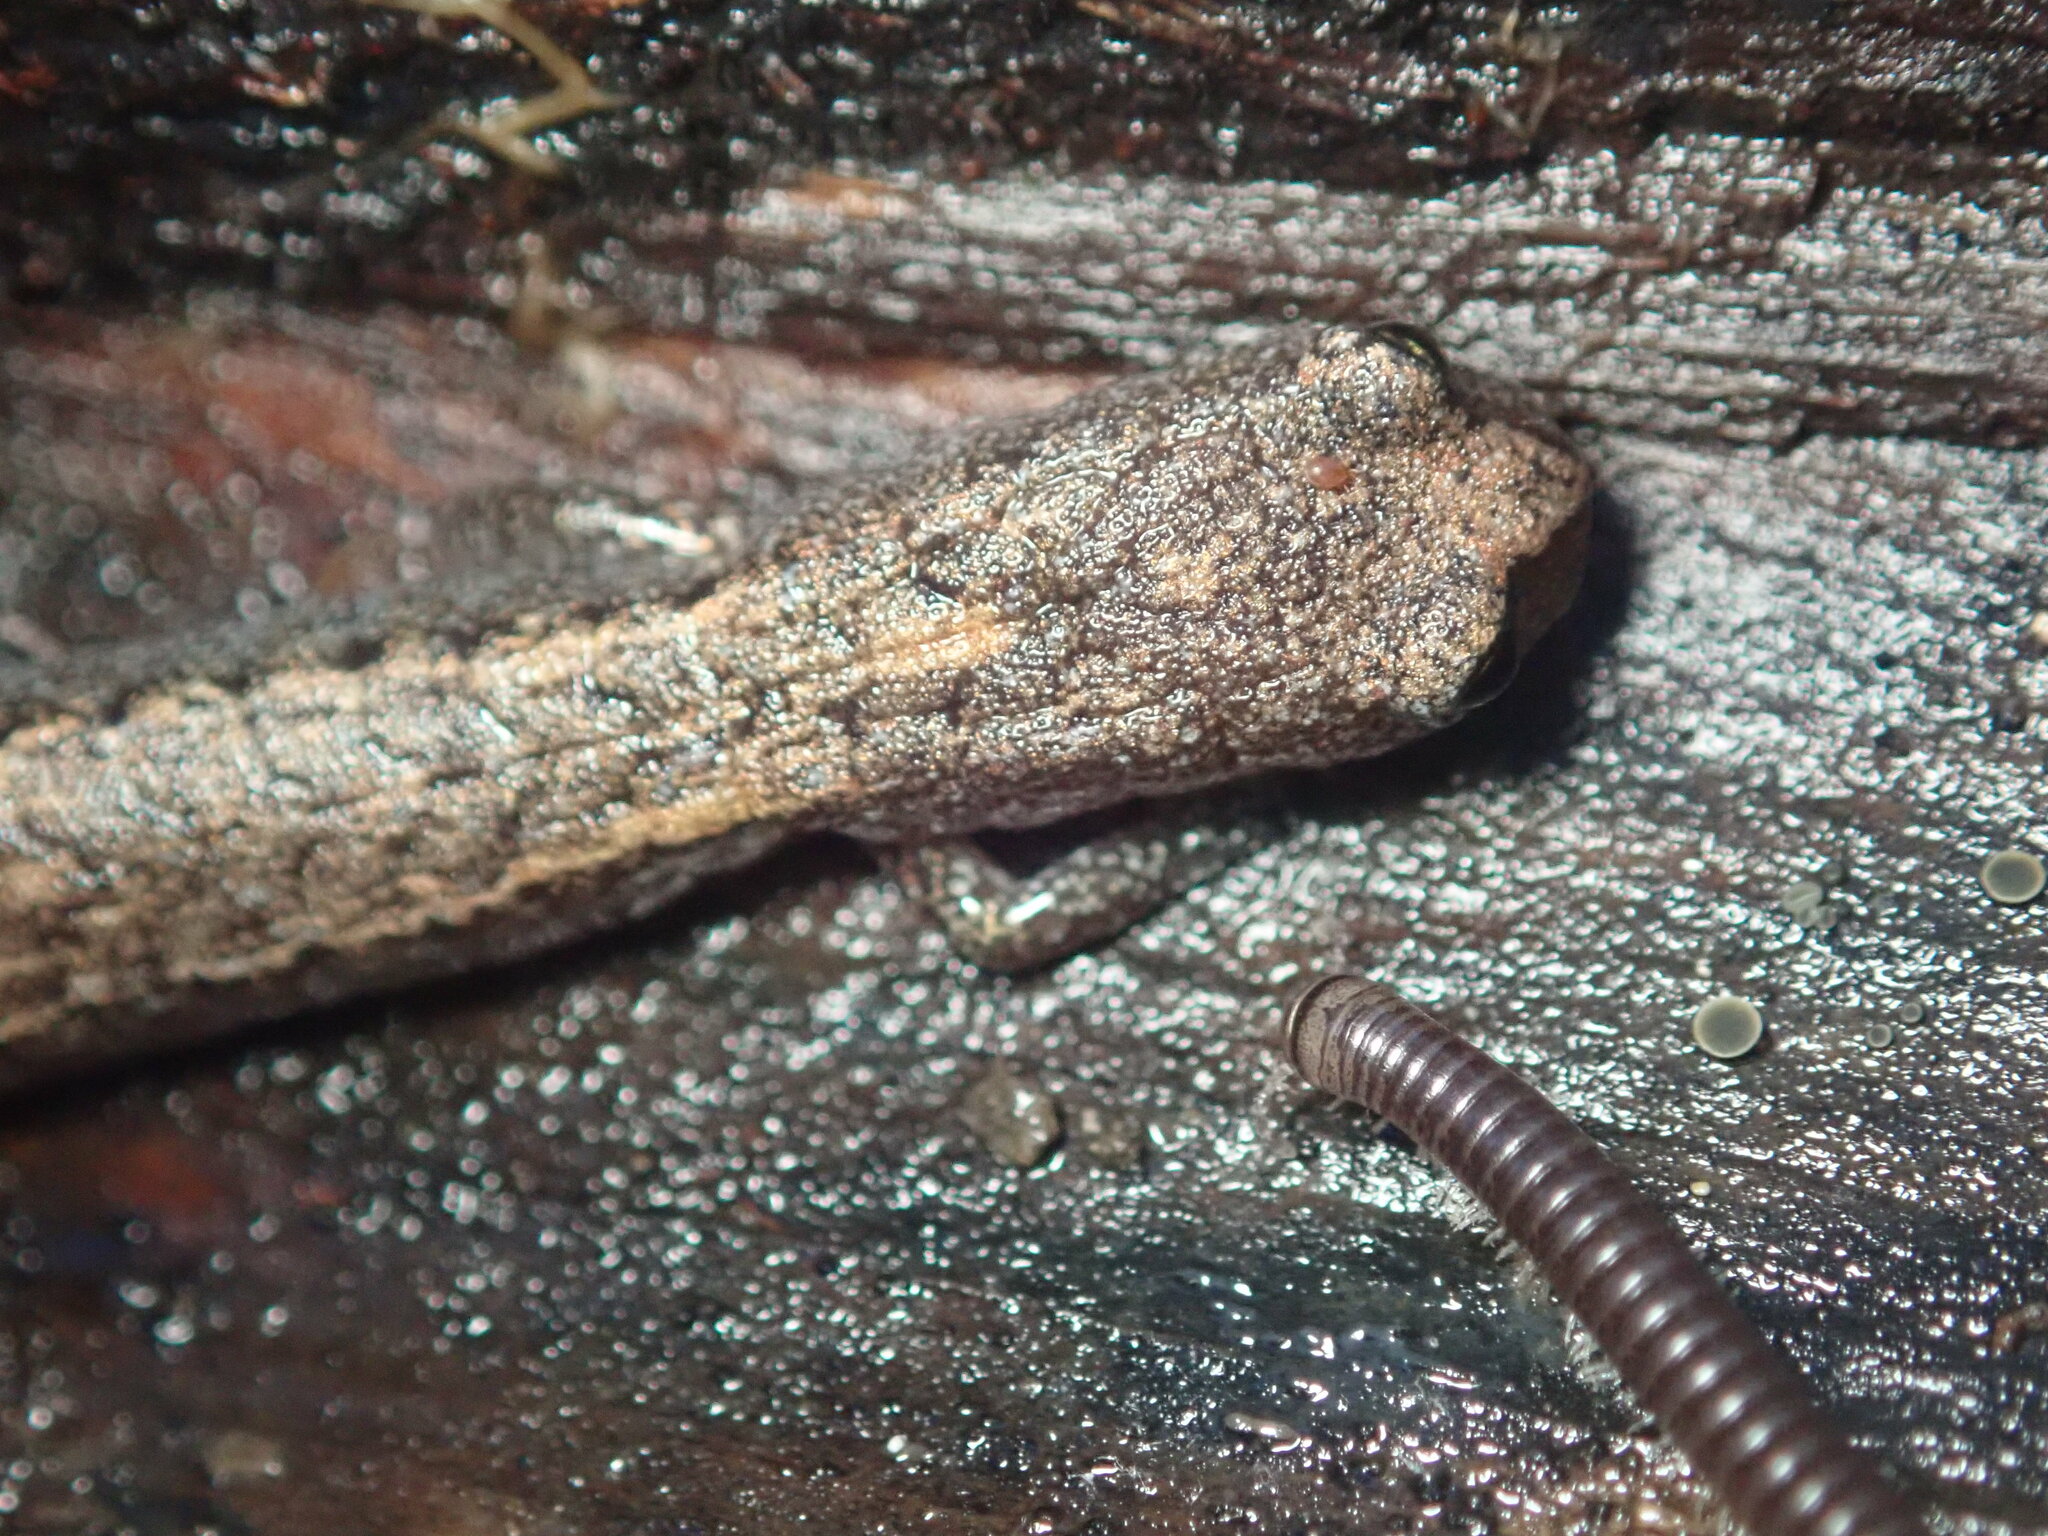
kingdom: Animalia
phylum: Chordata
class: Amphibia
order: Caudata
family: Plethodontidae
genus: Batrachoseps
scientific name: Batrachoseps attenuatus
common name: California slender salamander
